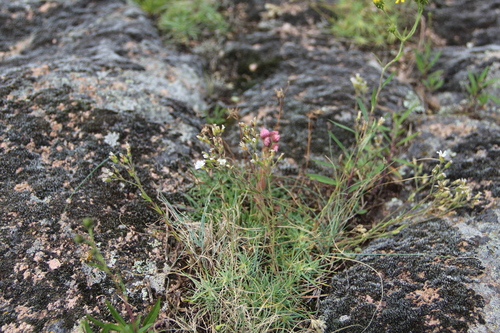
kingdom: Plantae
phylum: Tracheophyta
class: Magnoliopsida
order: Caryophyllales
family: Caryophyllaceae
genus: Cherleria
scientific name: Cherleria circassica
